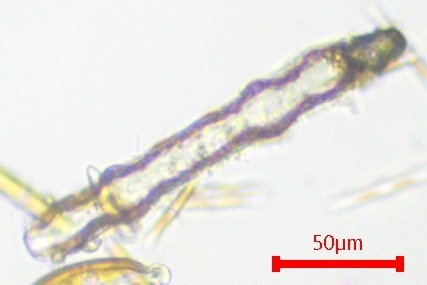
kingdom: Chromista
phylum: Ochrophyta
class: Bacillariophyceae
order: Surirellales
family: Surirellaceae
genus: Surirella
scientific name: Surirella librile
